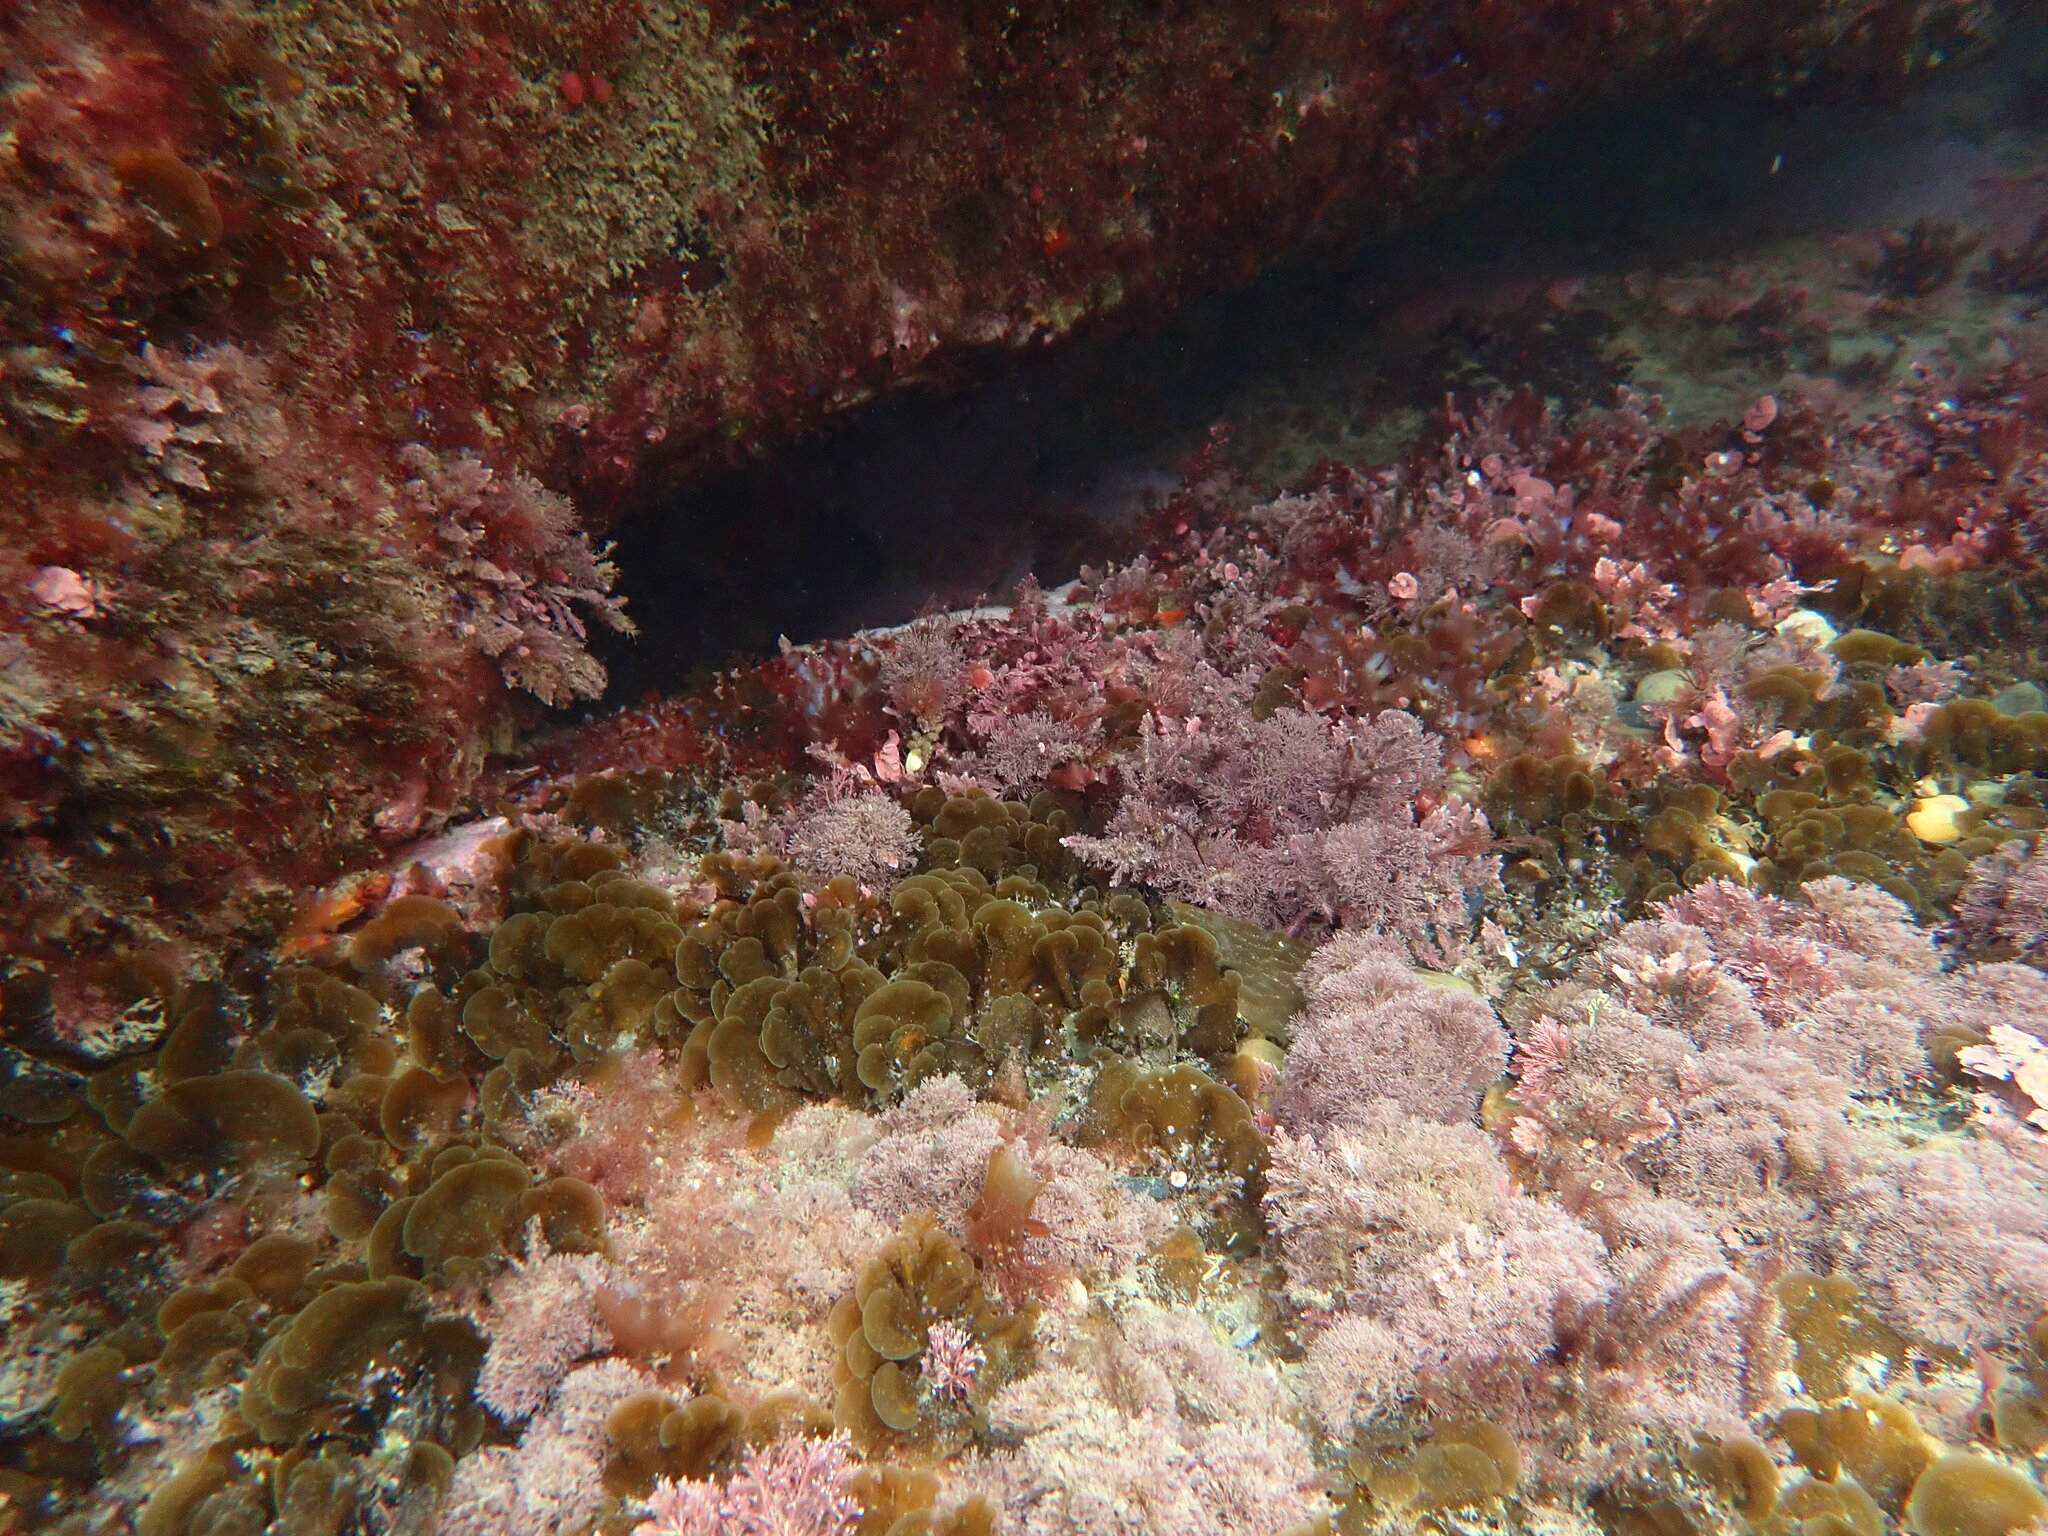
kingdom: Chromista
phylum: Ochrophyta
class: Phaeophyceae
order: Dictyotales
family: Dictyotaceae
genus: Zonaria
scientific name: Zonaria aureomarginata
